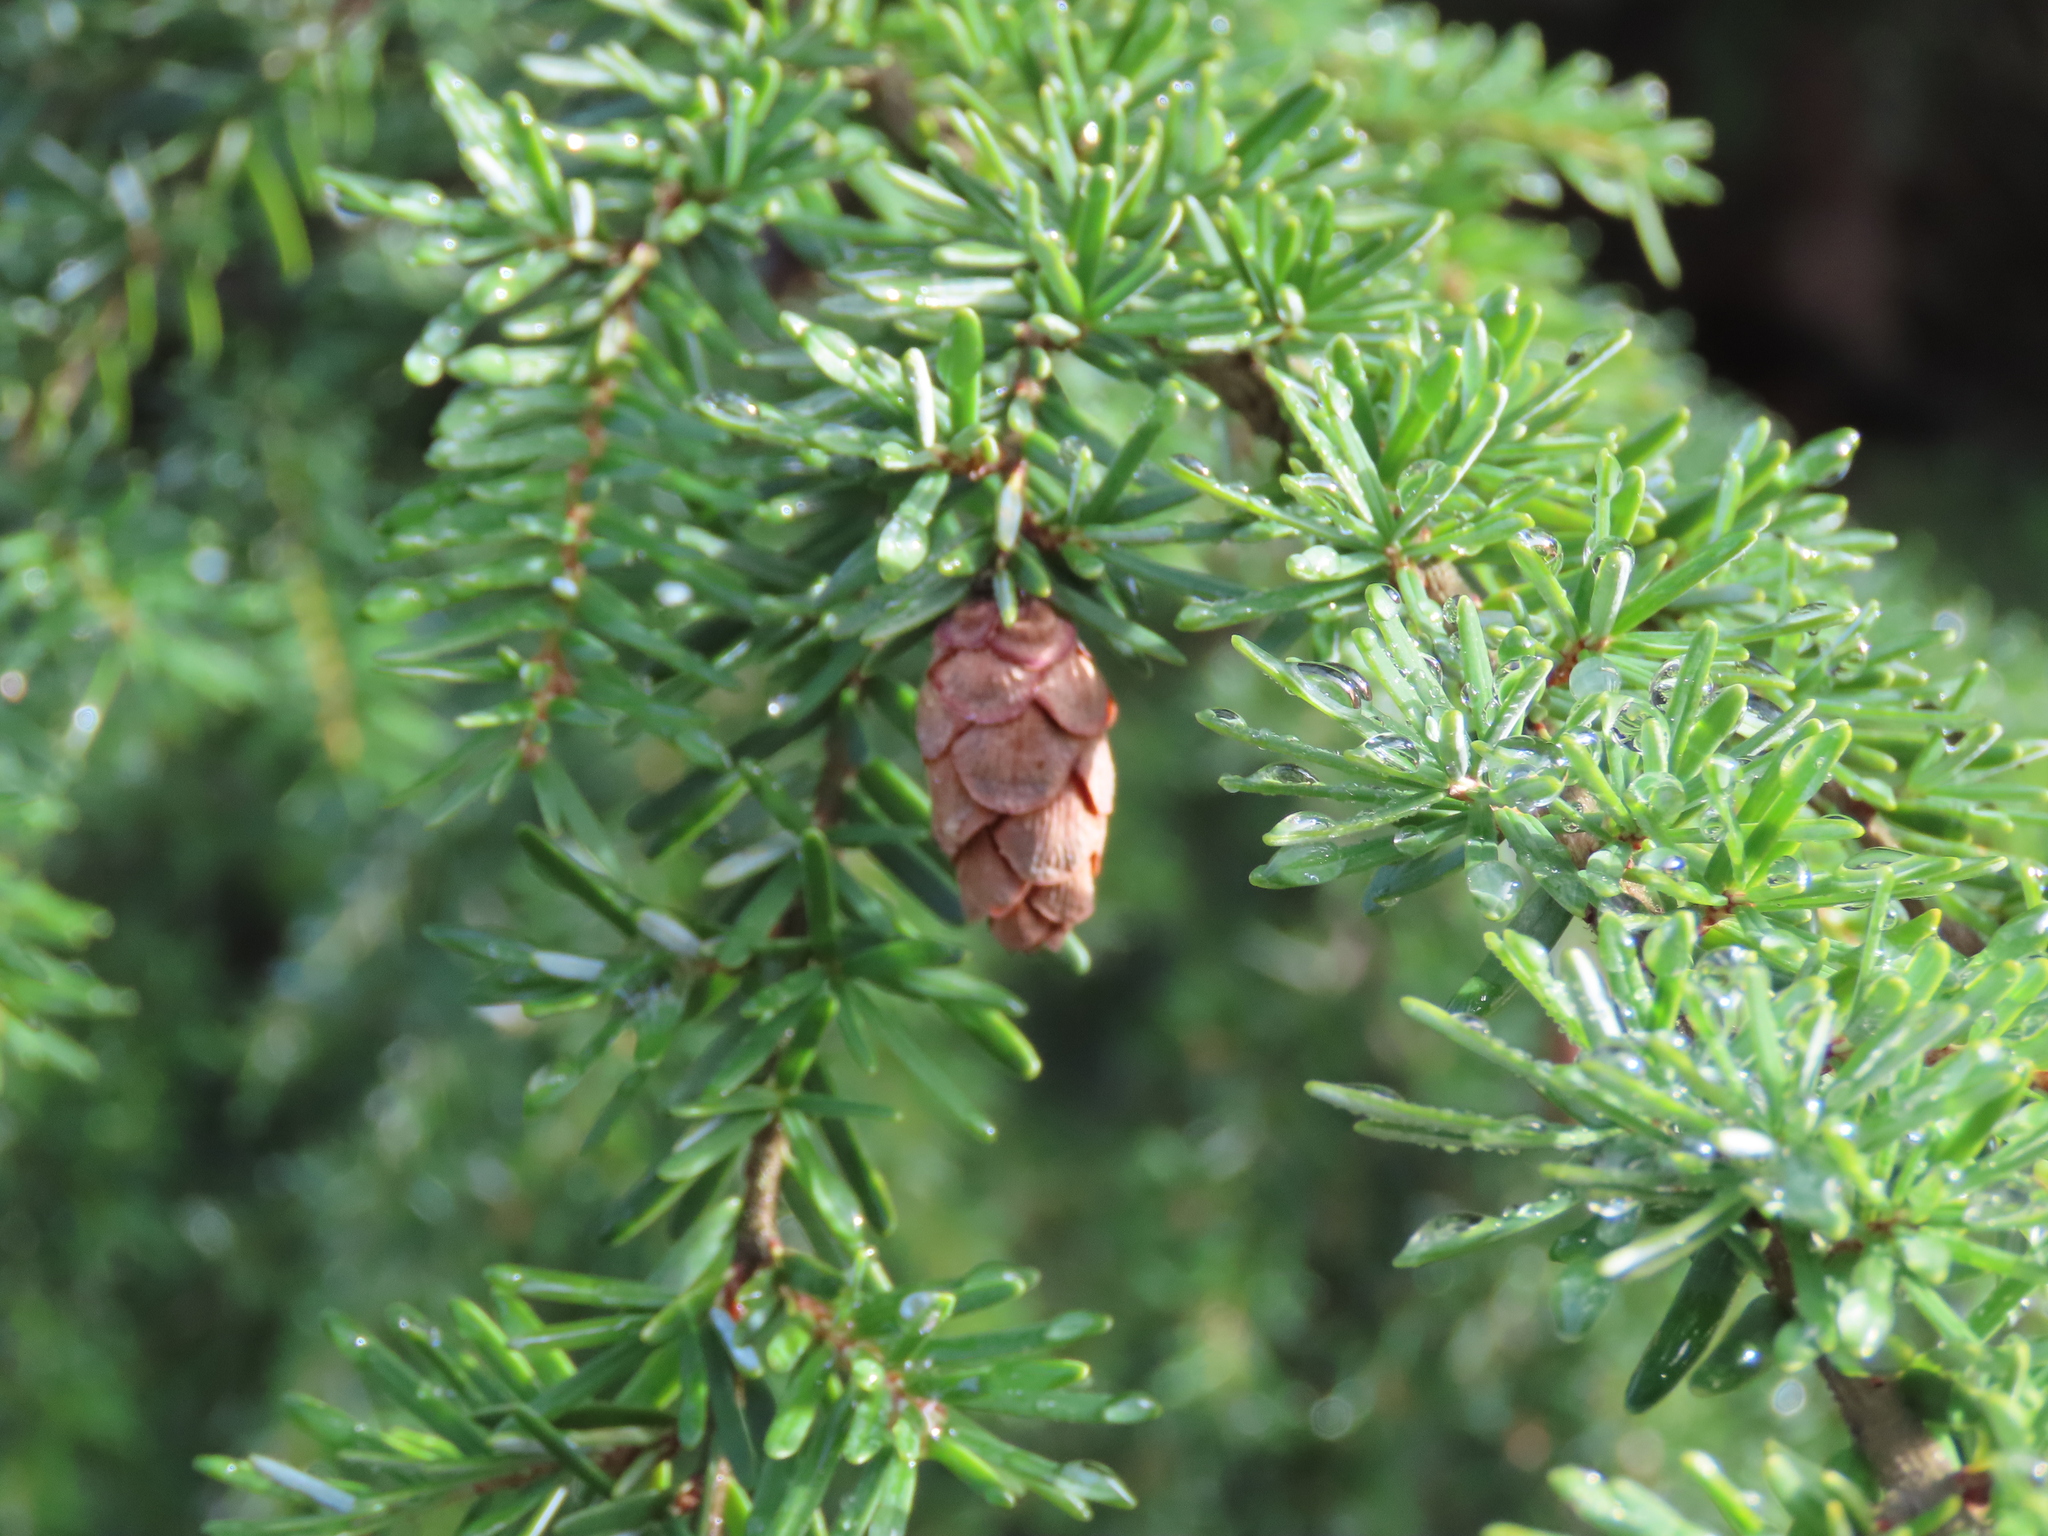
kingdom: Plantae
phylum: Tracheophyta
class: Pinopsida
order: Pinales
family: Pinaceae
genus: Tsuga
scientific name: Tsuga heterophylla
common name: Western hemlock
